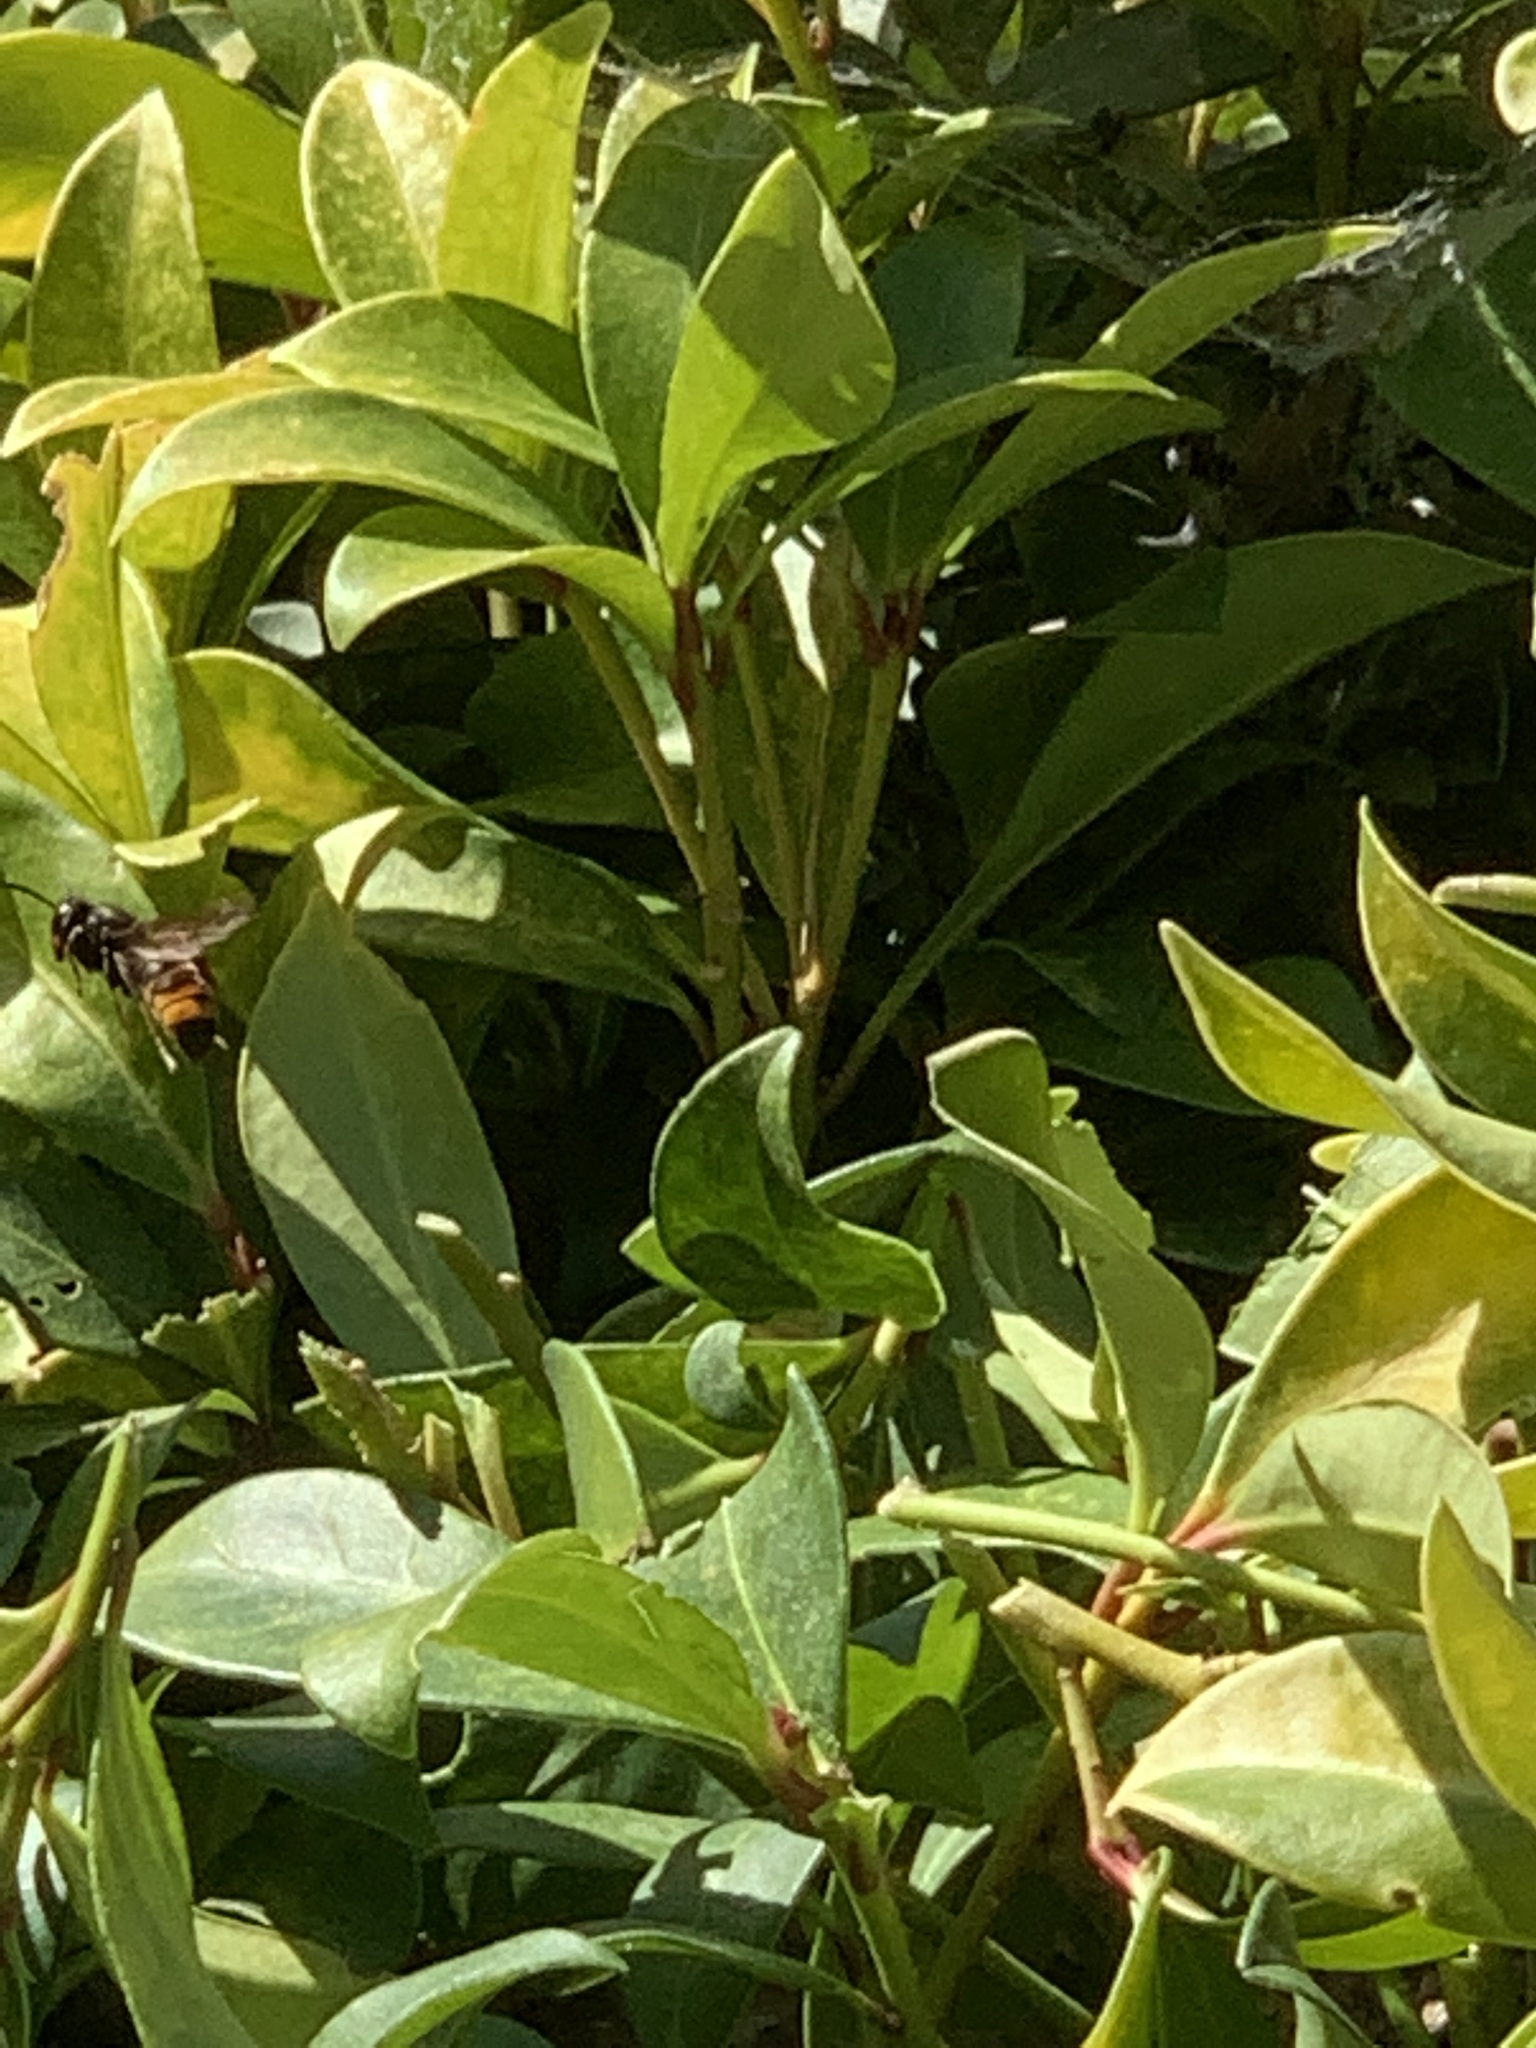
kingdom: Animalia
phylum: Arthropoda
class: Insecta
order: Hymenoptera
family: Vespidae
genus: Vespa
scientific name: Vespa velutina
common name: Asian hornet
